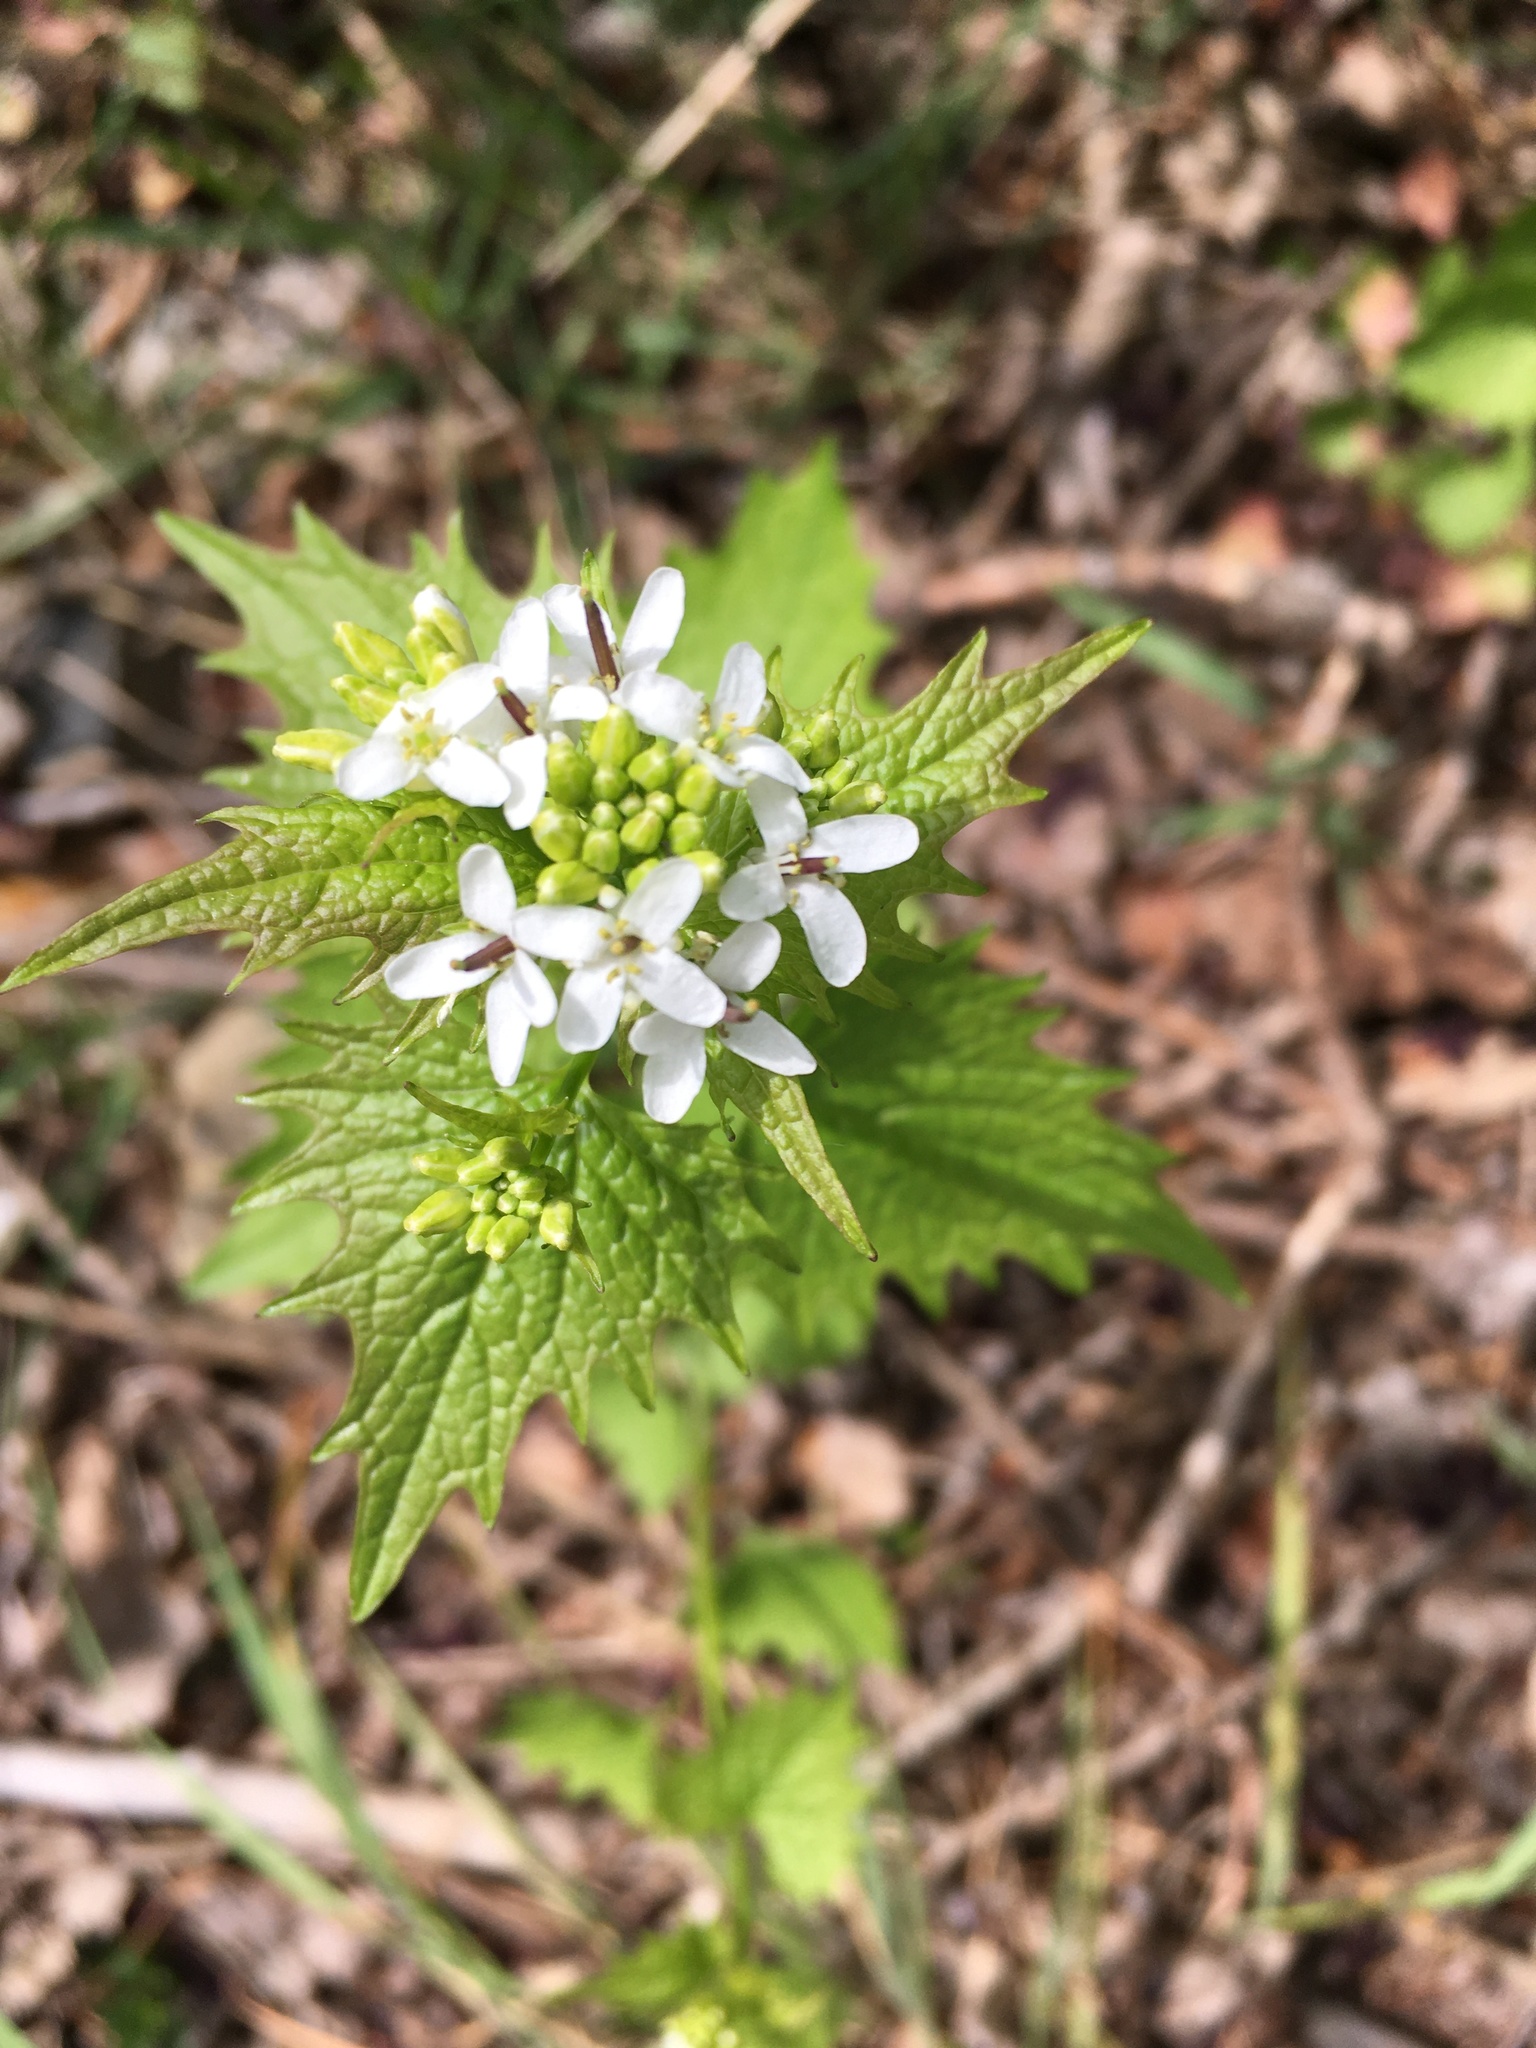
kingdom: Plantae
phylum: Tracheophyta
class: Magnoliopsida
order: Brassicales
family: Brassicaceae
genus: Alliaria
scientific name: Alliaria petiolata
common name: Garlic mustard
